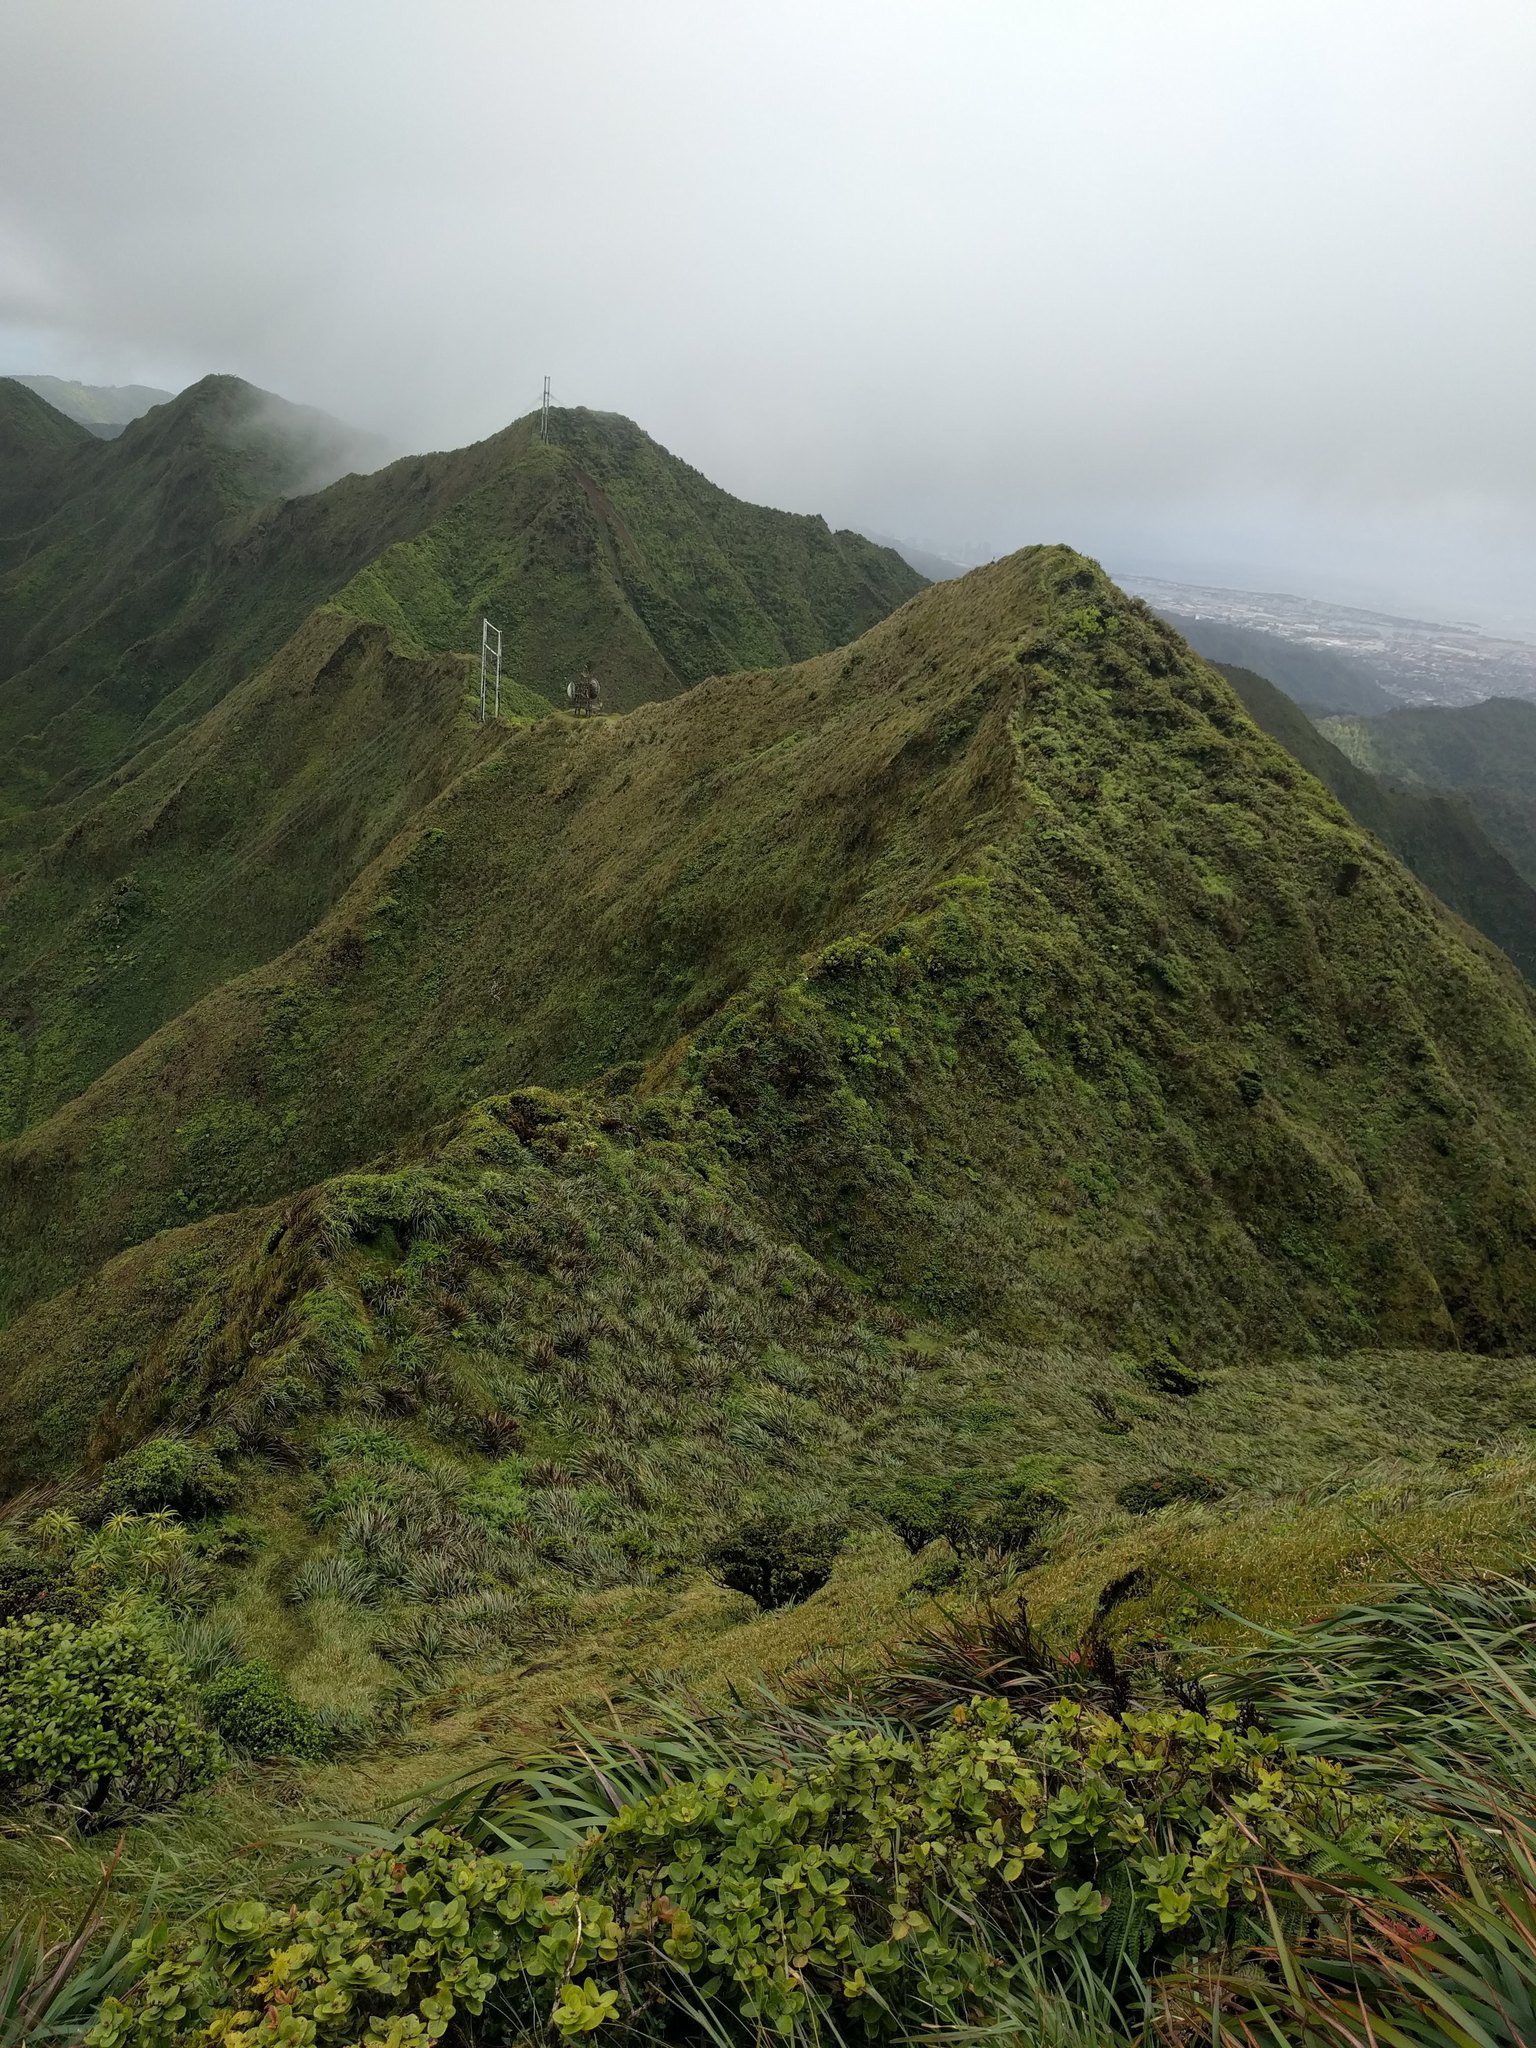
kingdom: Plantae
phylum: Tracheophyta
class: Liliopsida
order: Poales
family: Cyperaceae
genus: Machaerina
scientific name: Machaerina angustifolia
